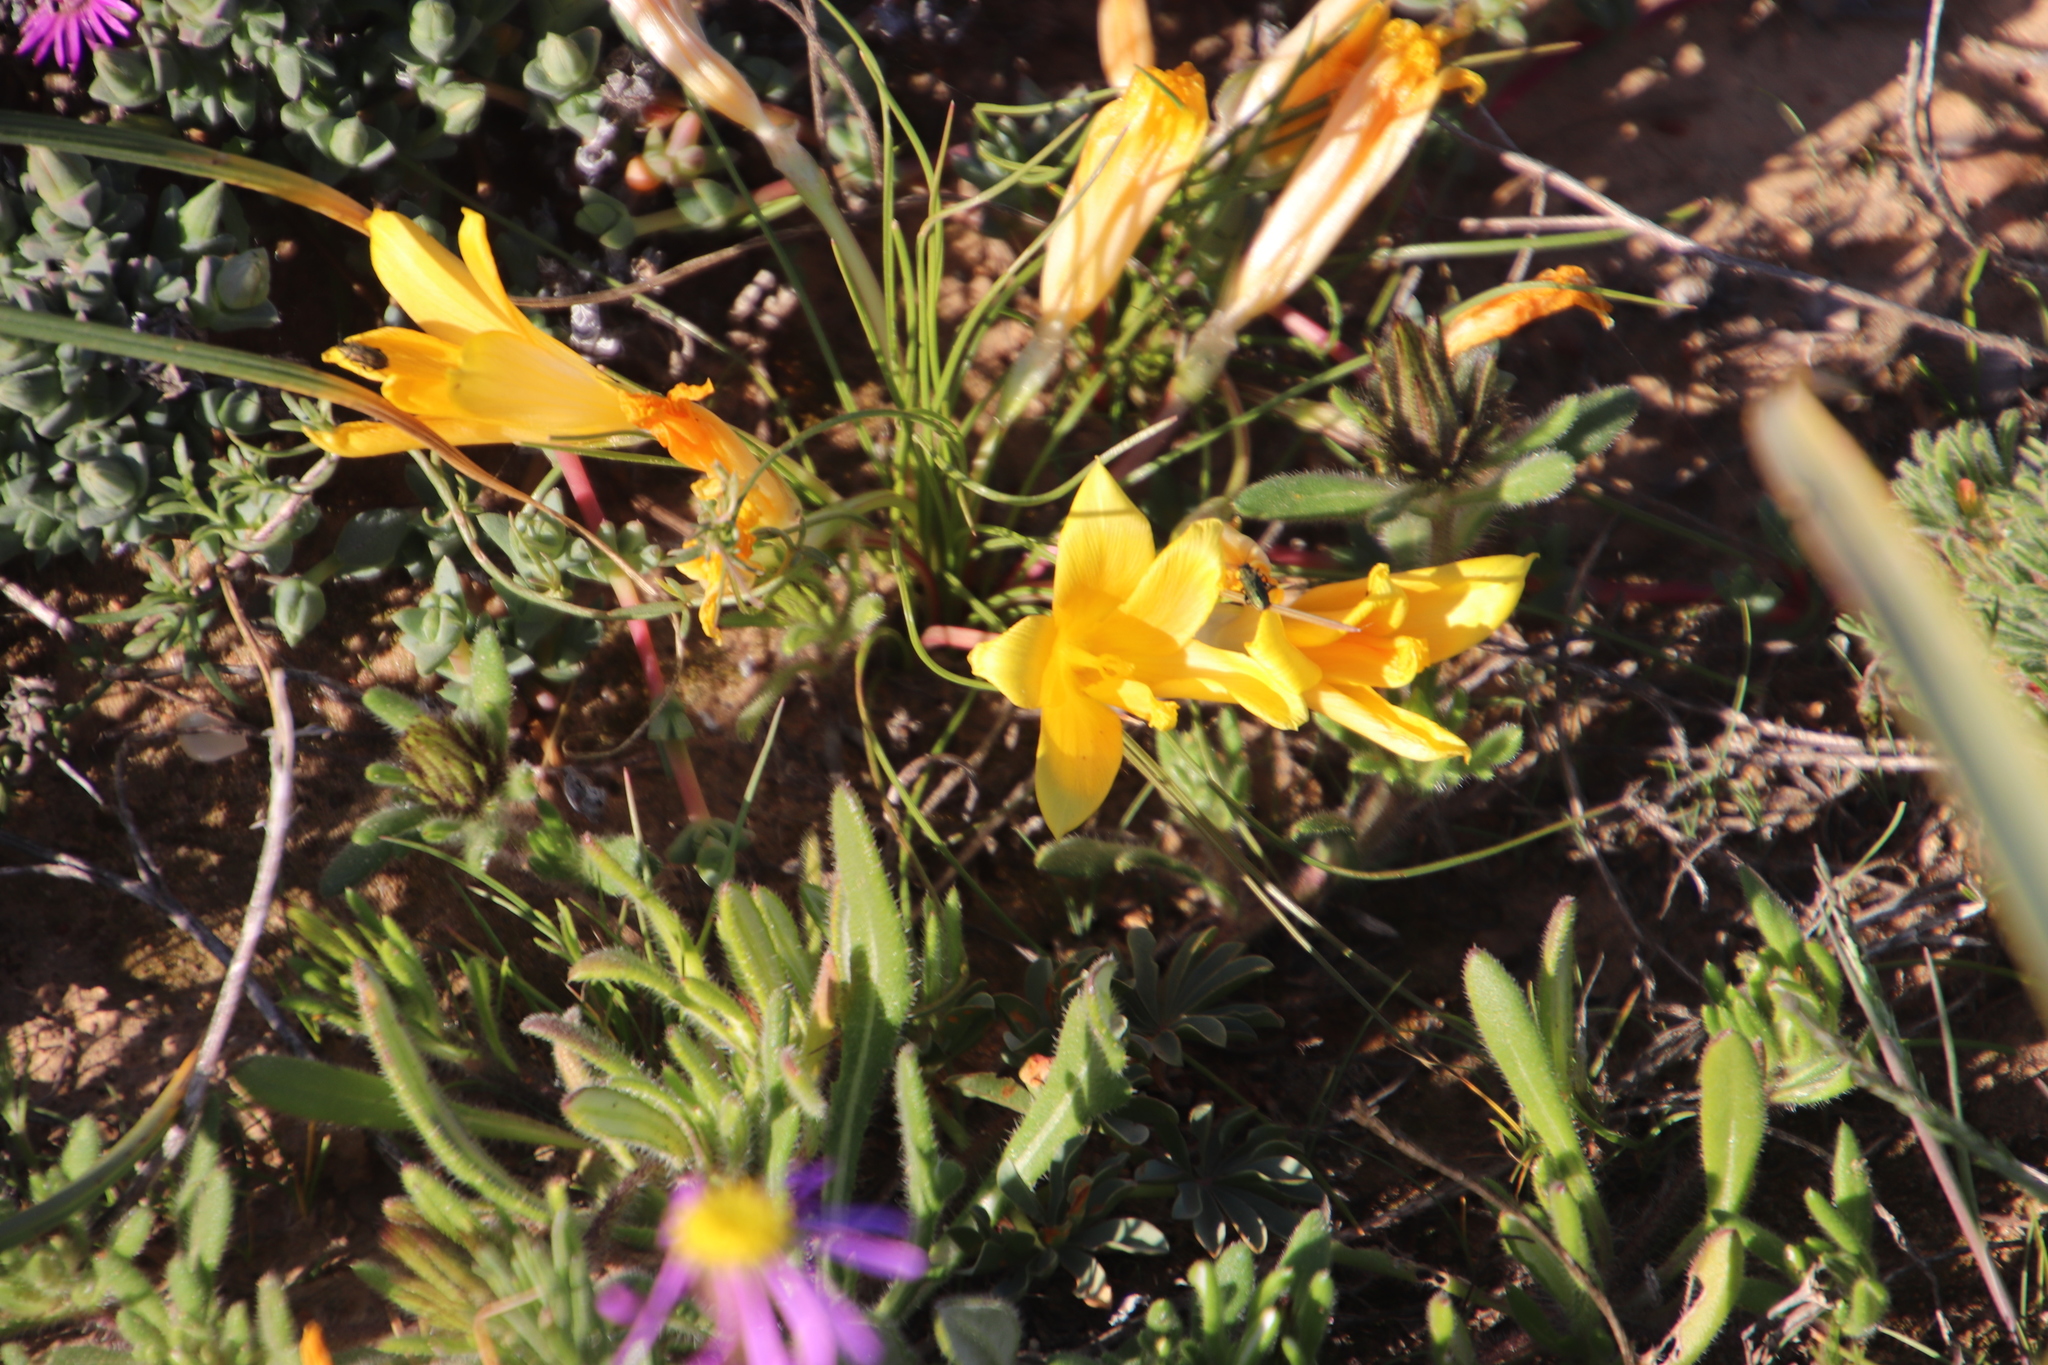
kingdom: Plantae
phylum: Tracheophyta
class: Liliopsida
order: Asparagales
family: Iridaceae
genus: Romulea
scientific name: Romulea tortuosa
